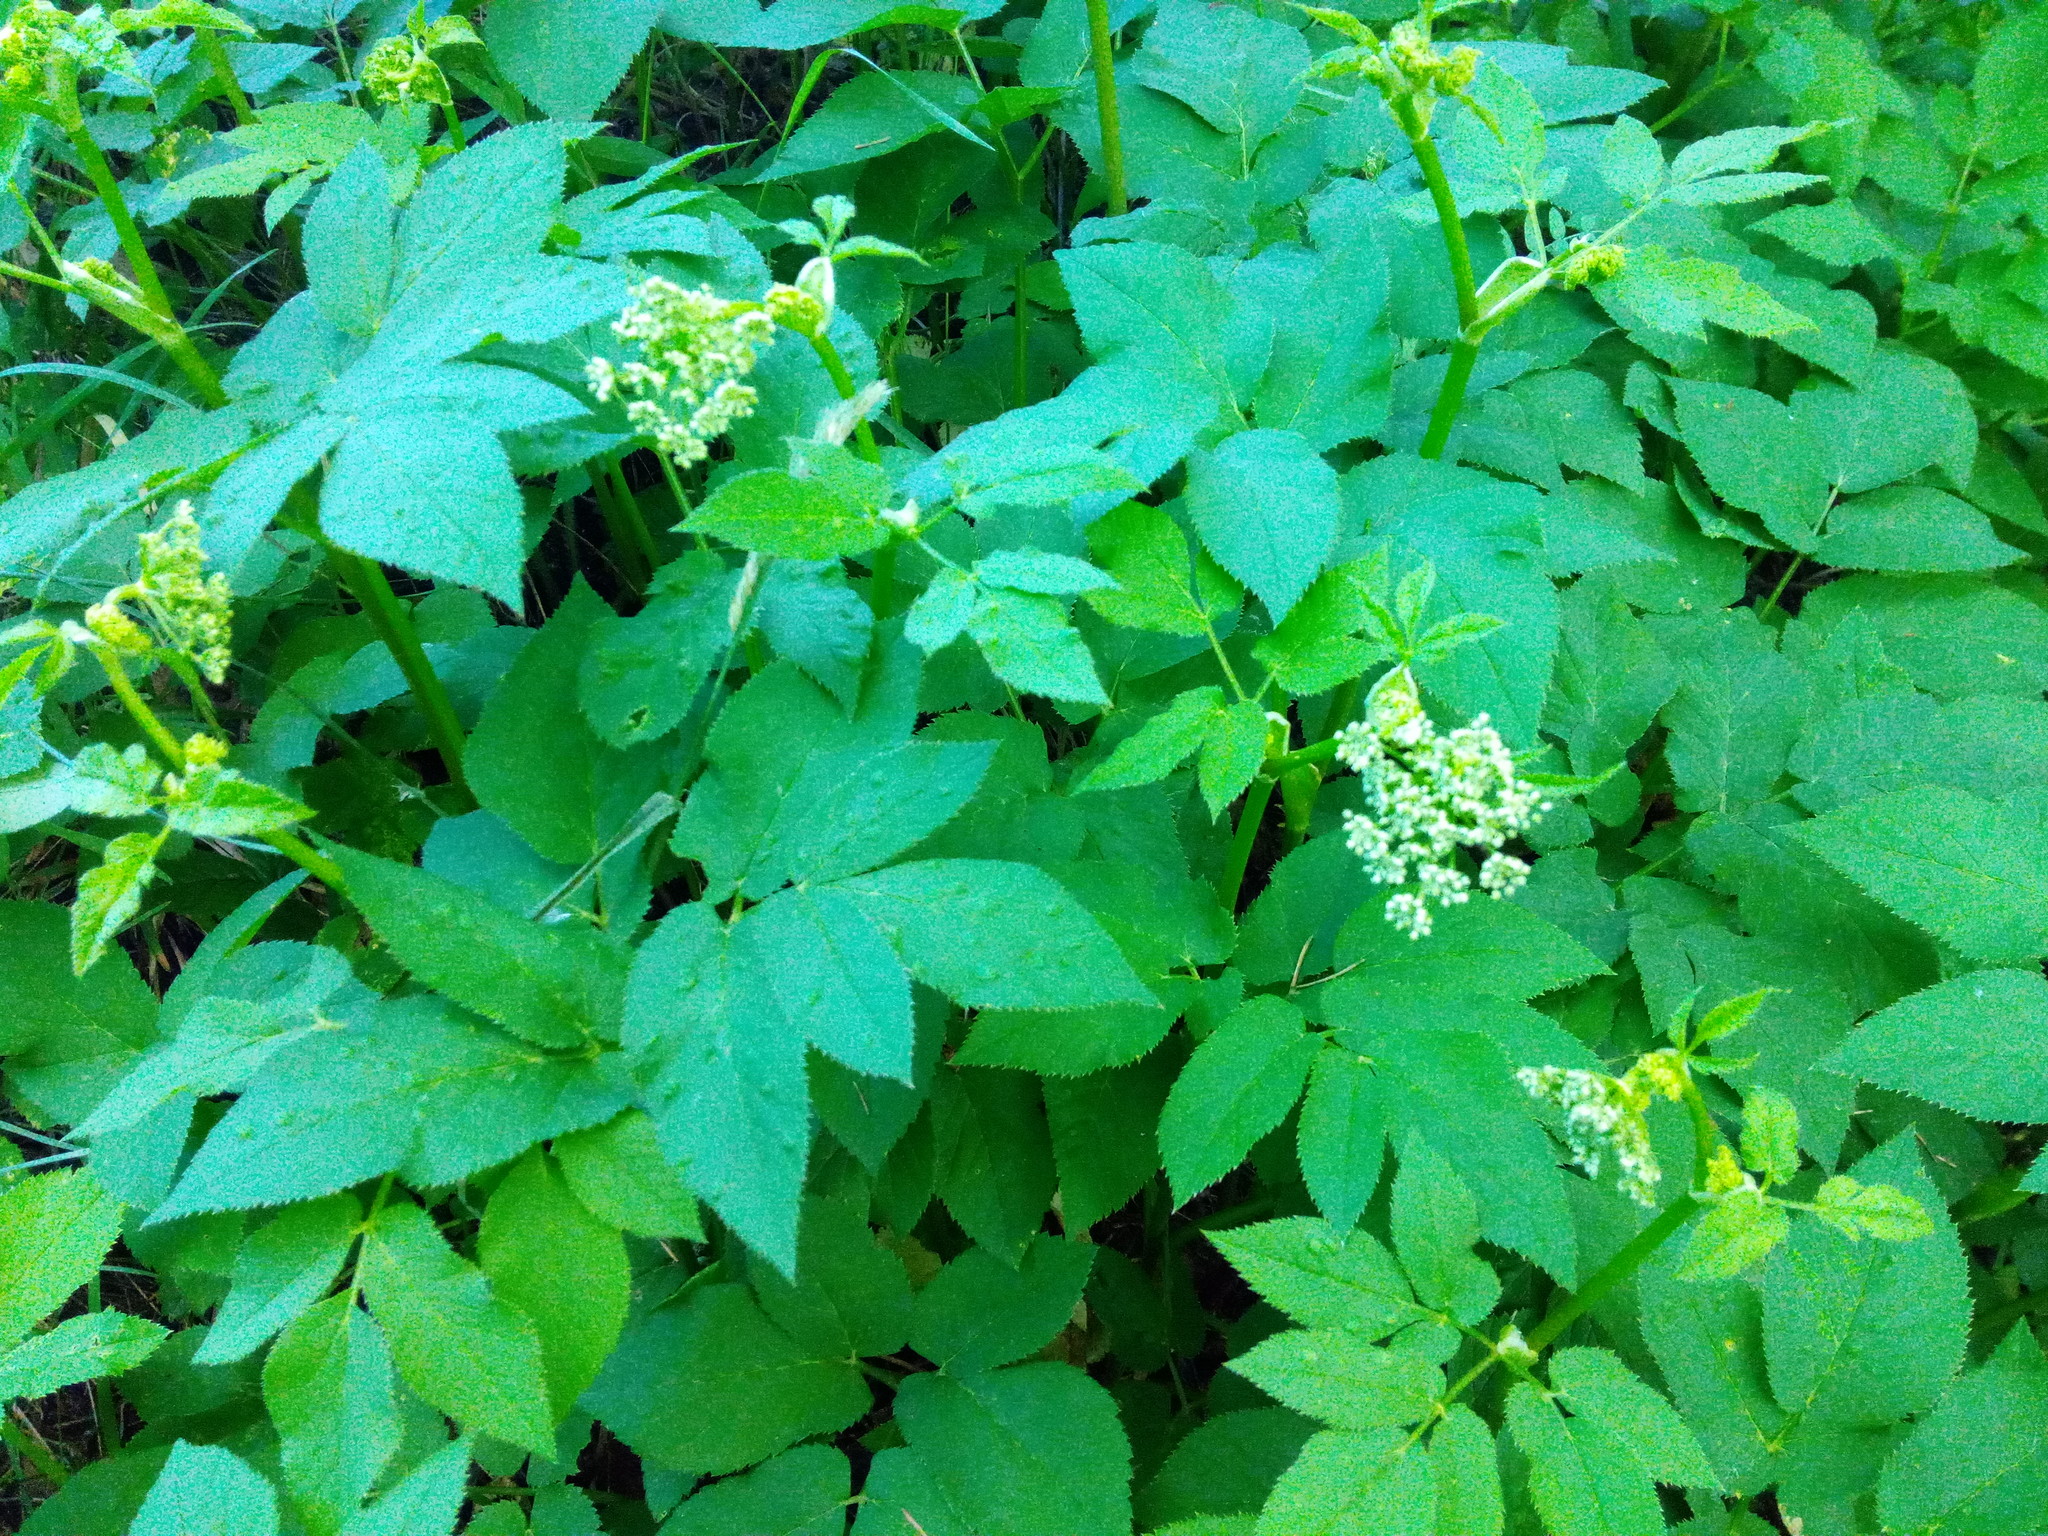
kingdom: Plantae
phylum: Tracheophyta
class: Magnoliopsida
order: Apiales
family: Apiaceae
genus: Aegopodium
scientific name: Aegopodium podagraria
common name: Ground-elder
